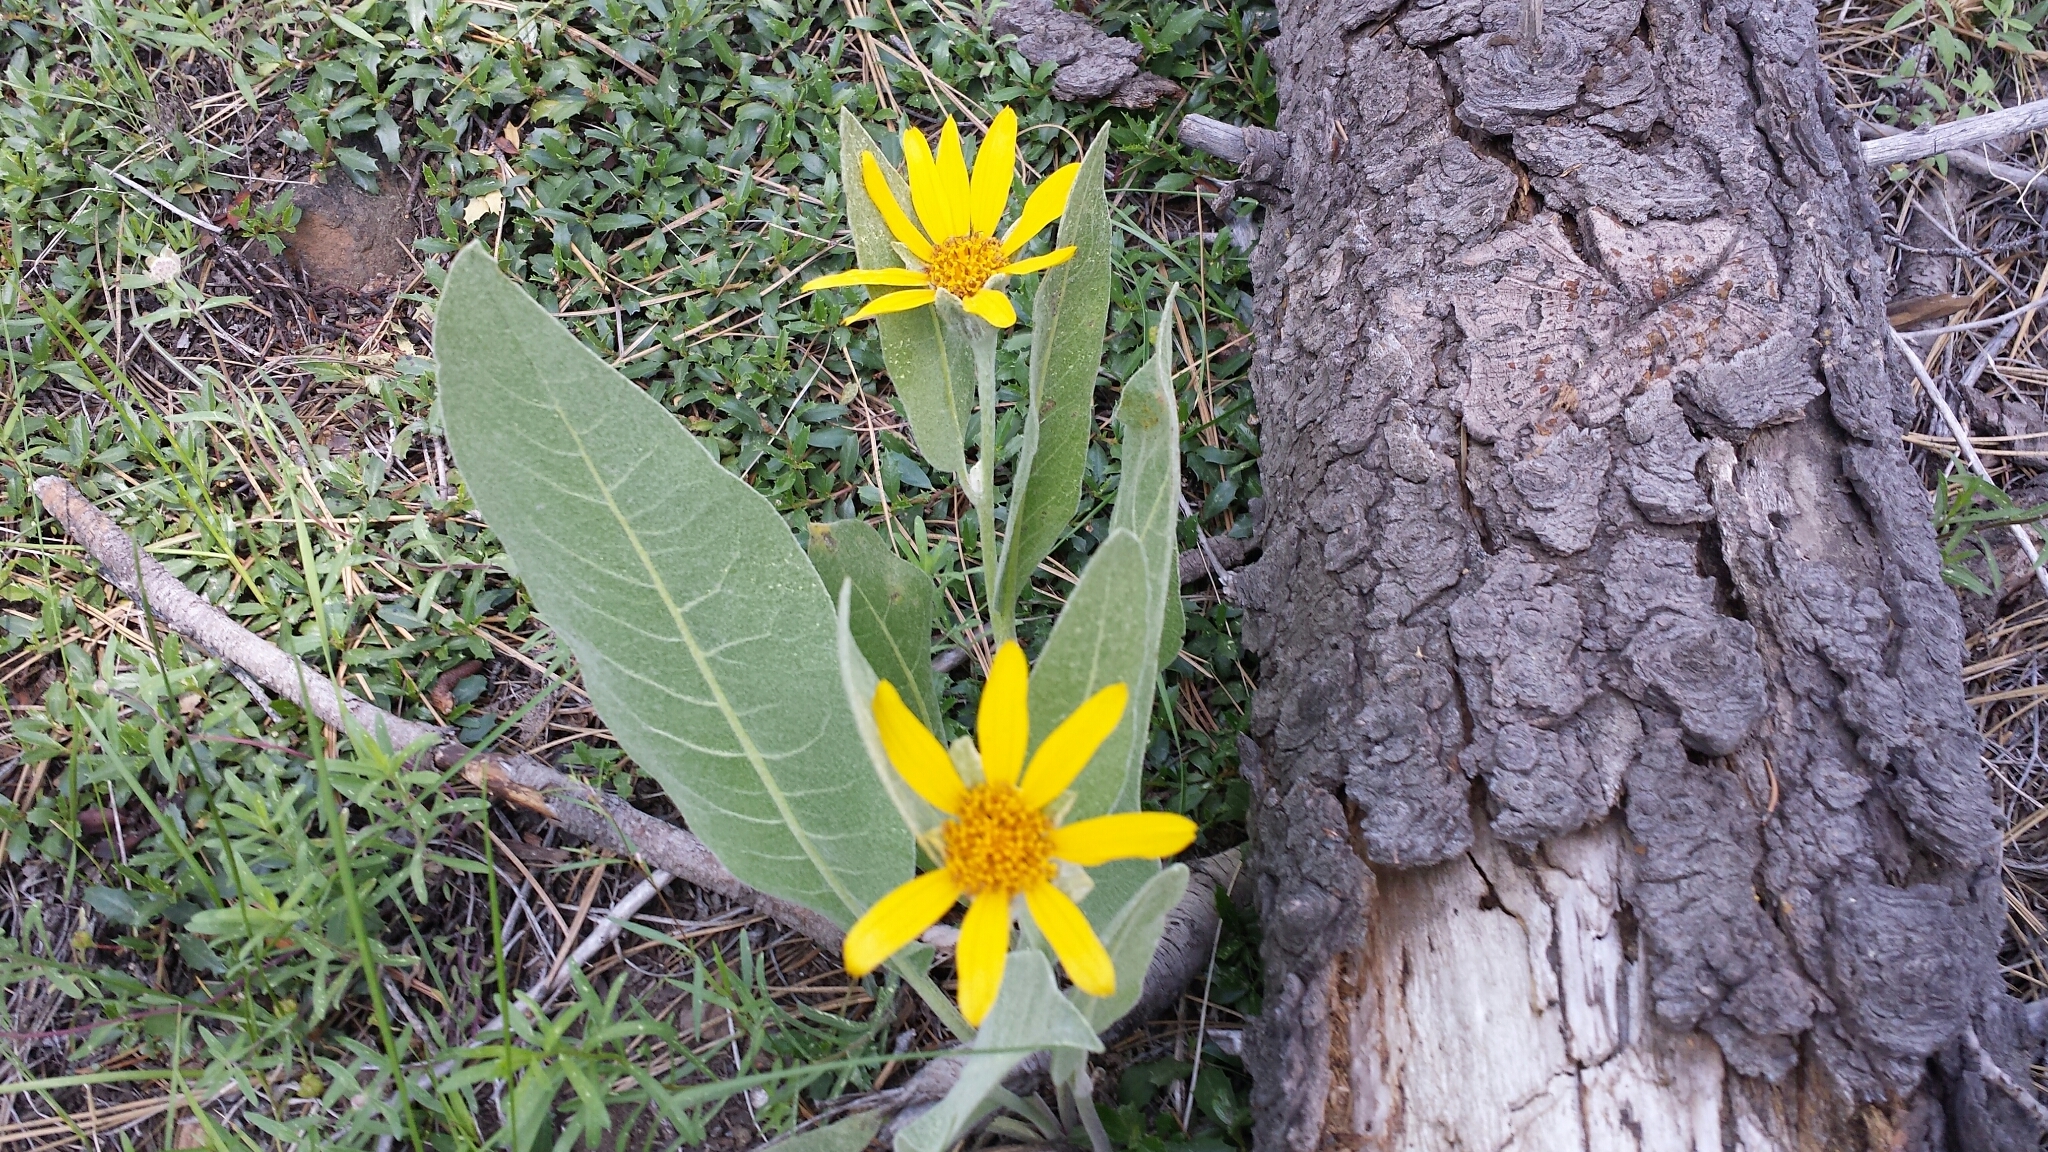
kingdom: Plantae
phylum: Tracheophyta
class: Magnoliopsida
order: Asterales
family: Asteraceae
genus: Wyethia
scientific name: Wyethia mollis
